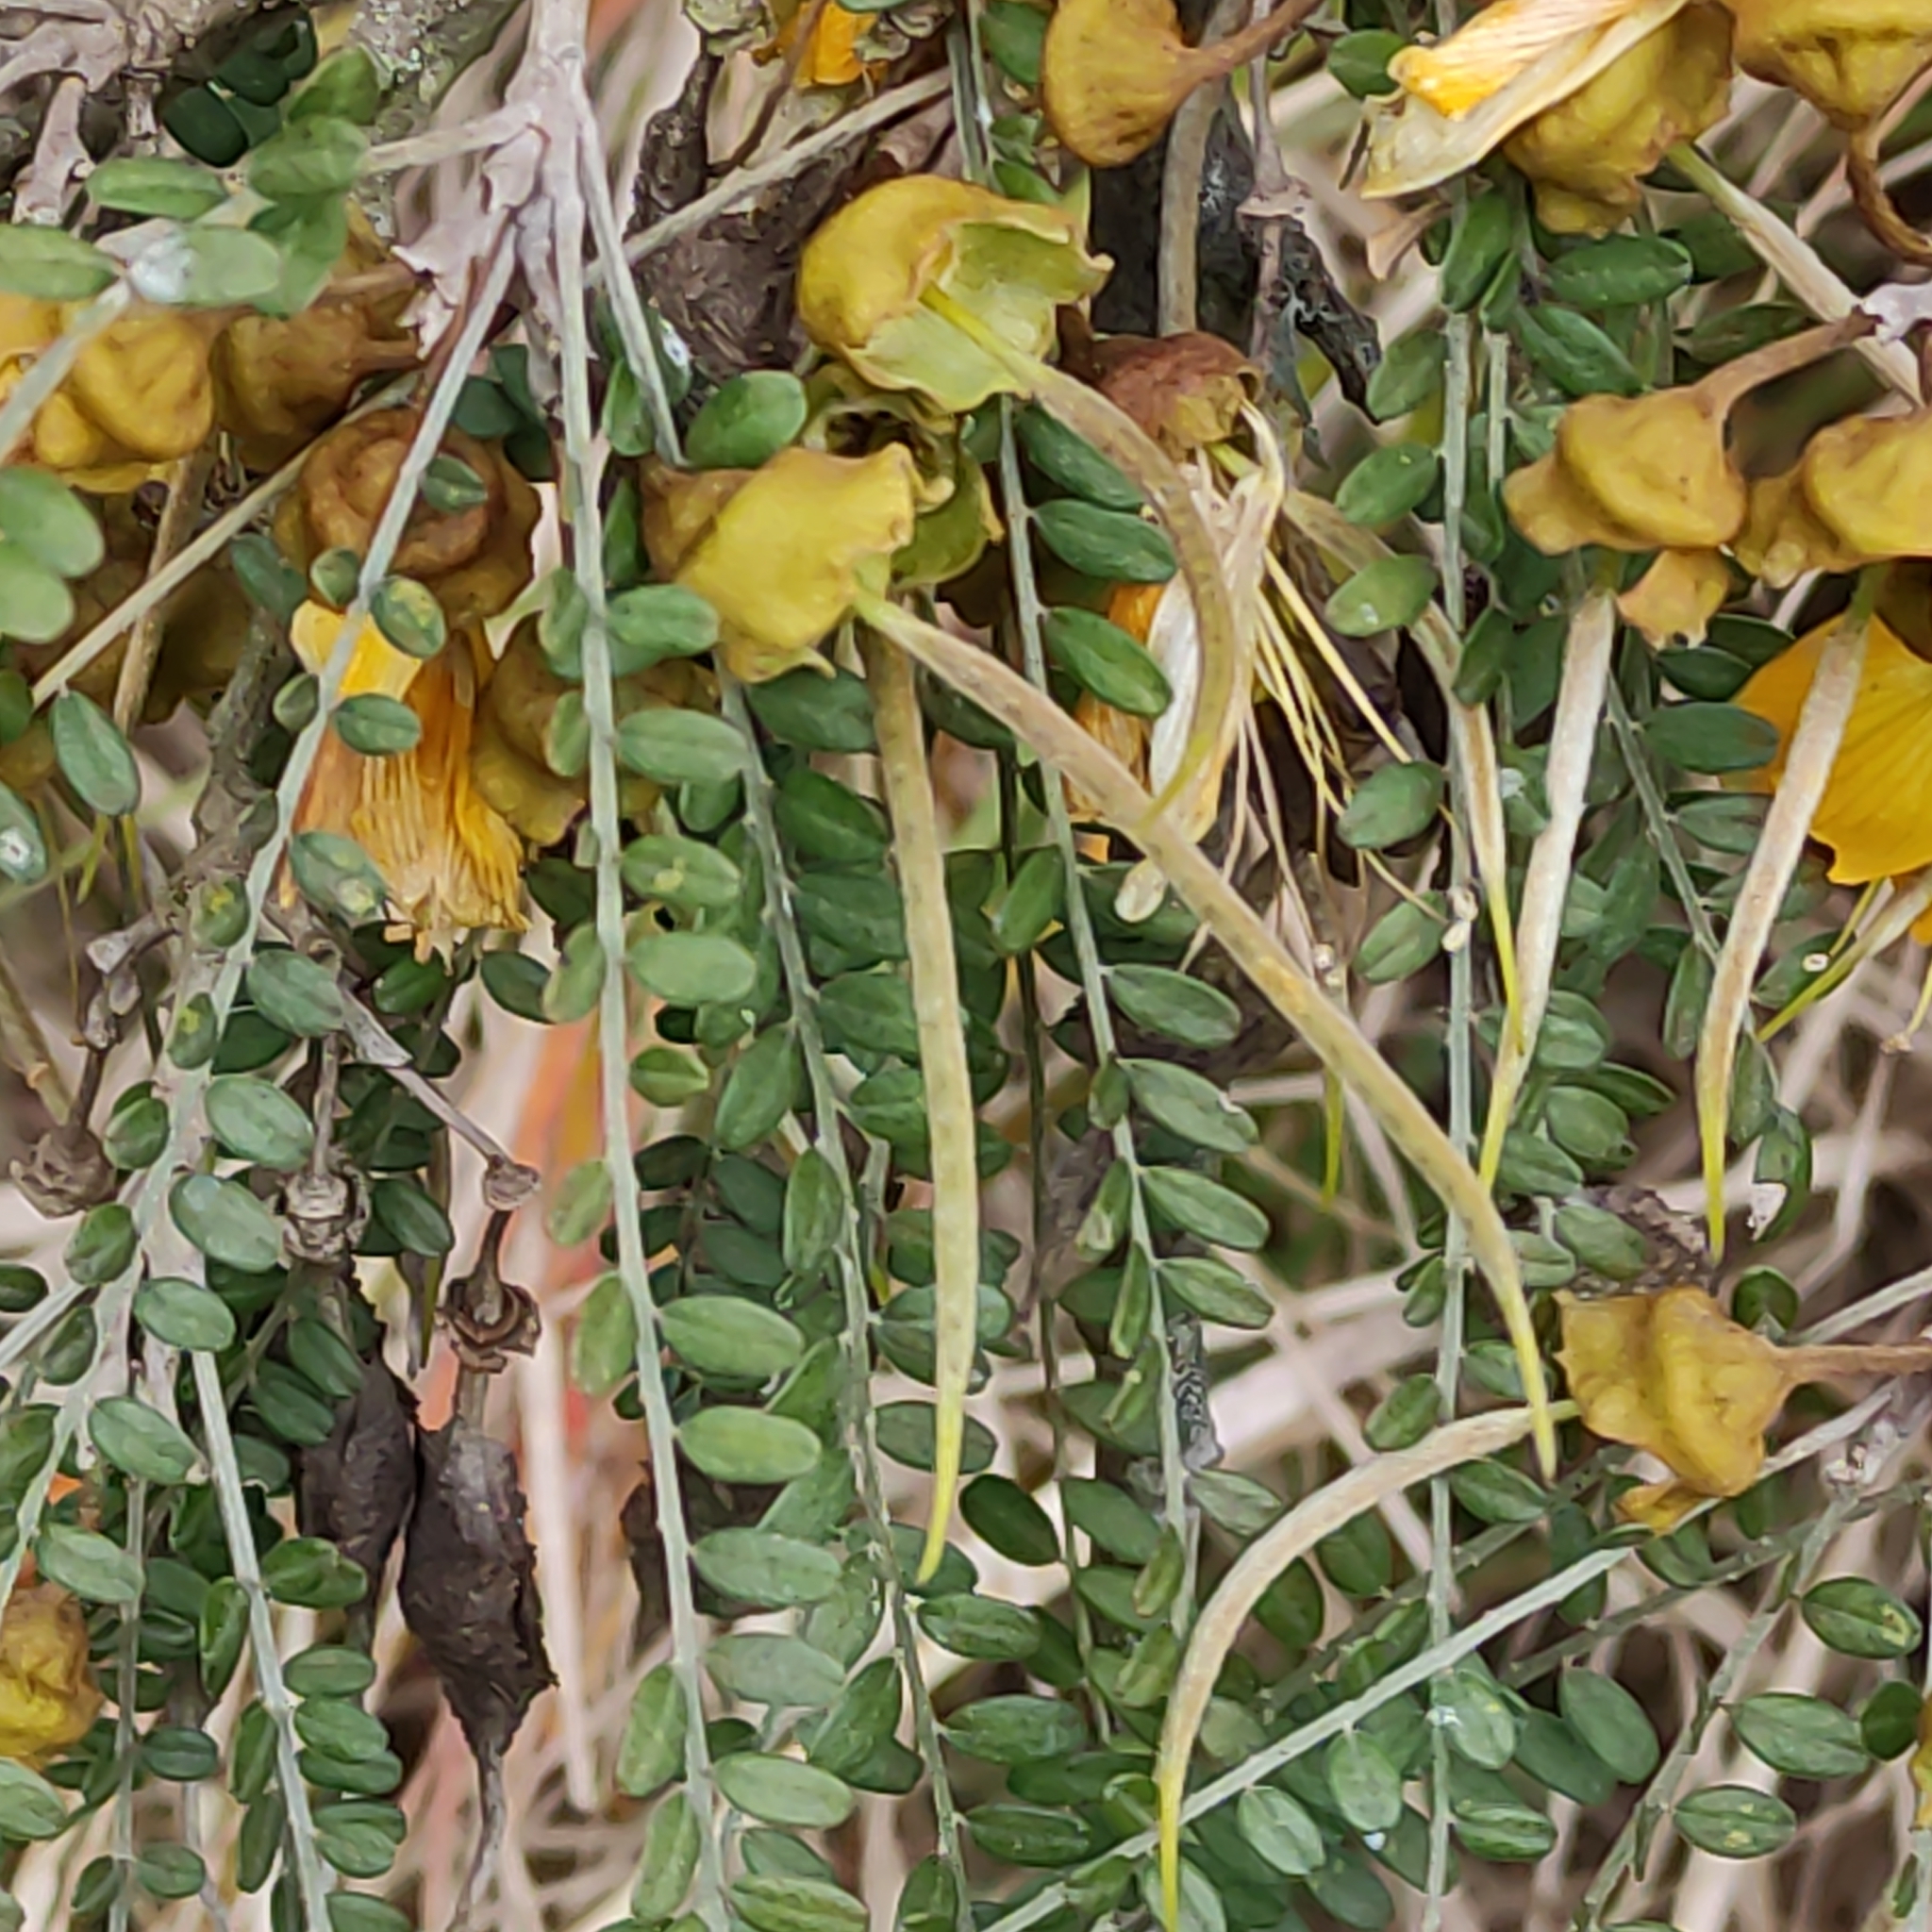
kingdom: Plantae
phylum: Tracheophyta
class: Magnoliopsida
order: Fabales
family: Fabaceae
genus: Sophora
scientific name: Sophora microphylla
